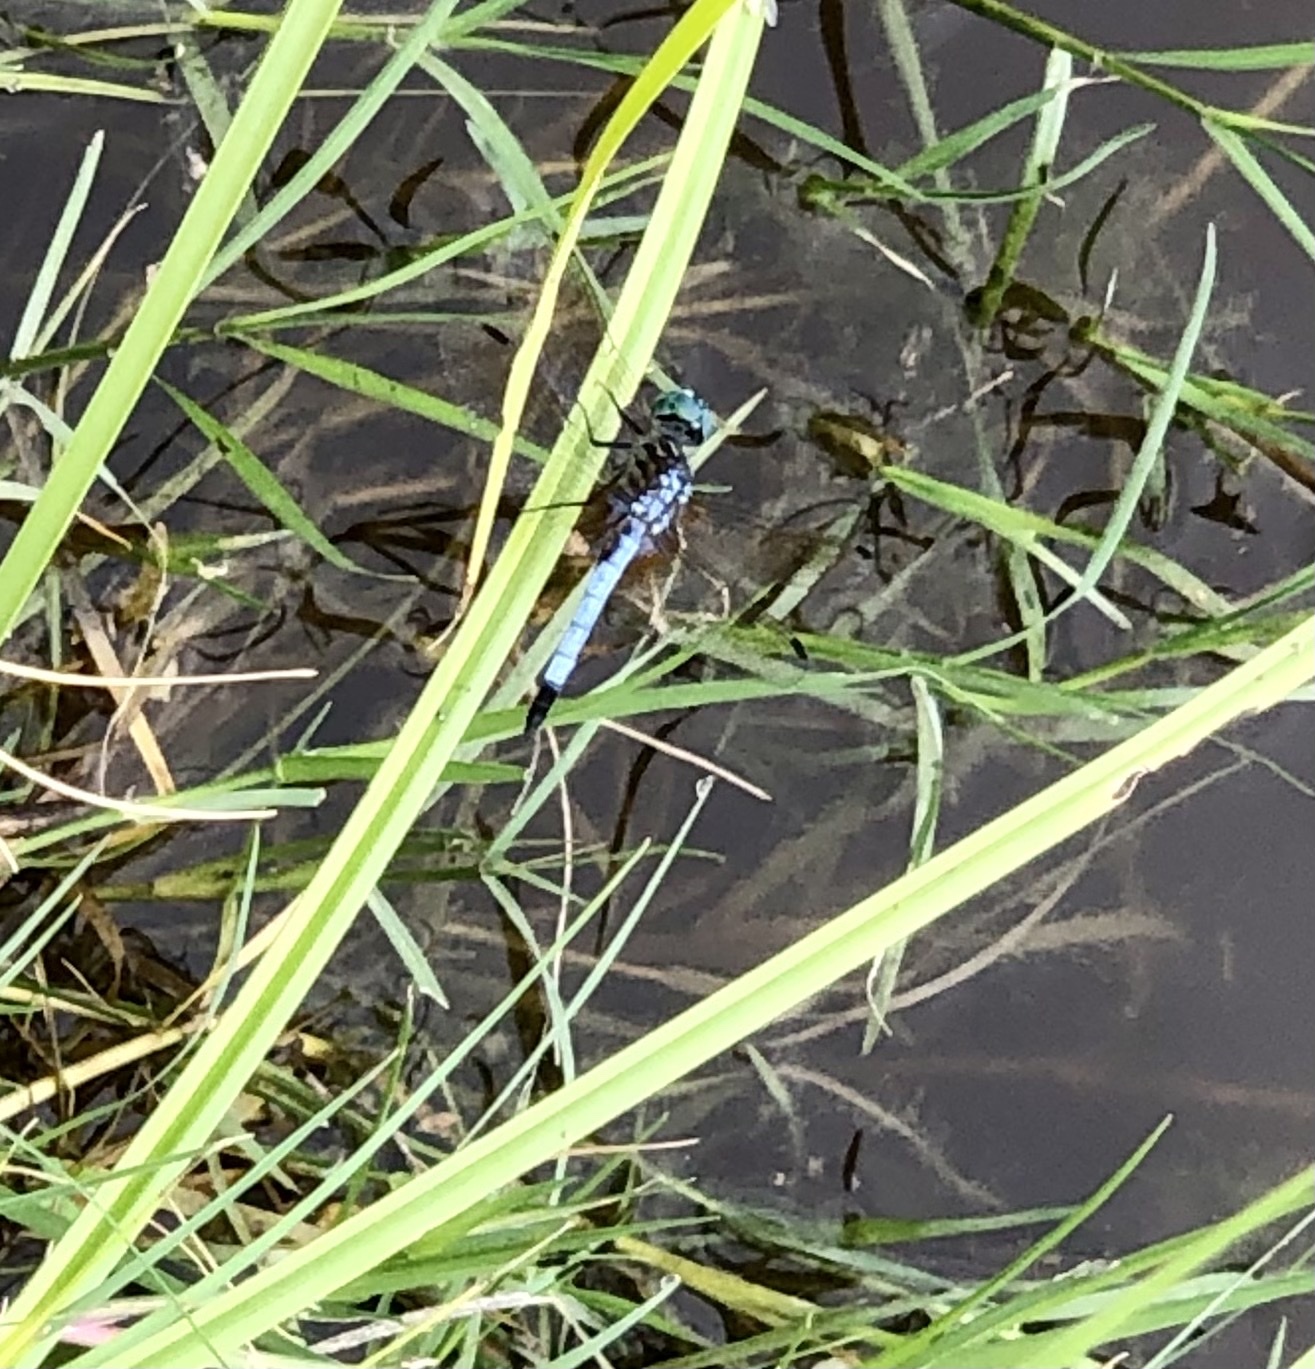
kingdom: Animalia
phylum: Arthropoda
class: Insecta
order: Odonata
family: Libellulidae
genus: Pachydiplax
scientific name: Pachydiplax longipennis
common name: Blue dasher
